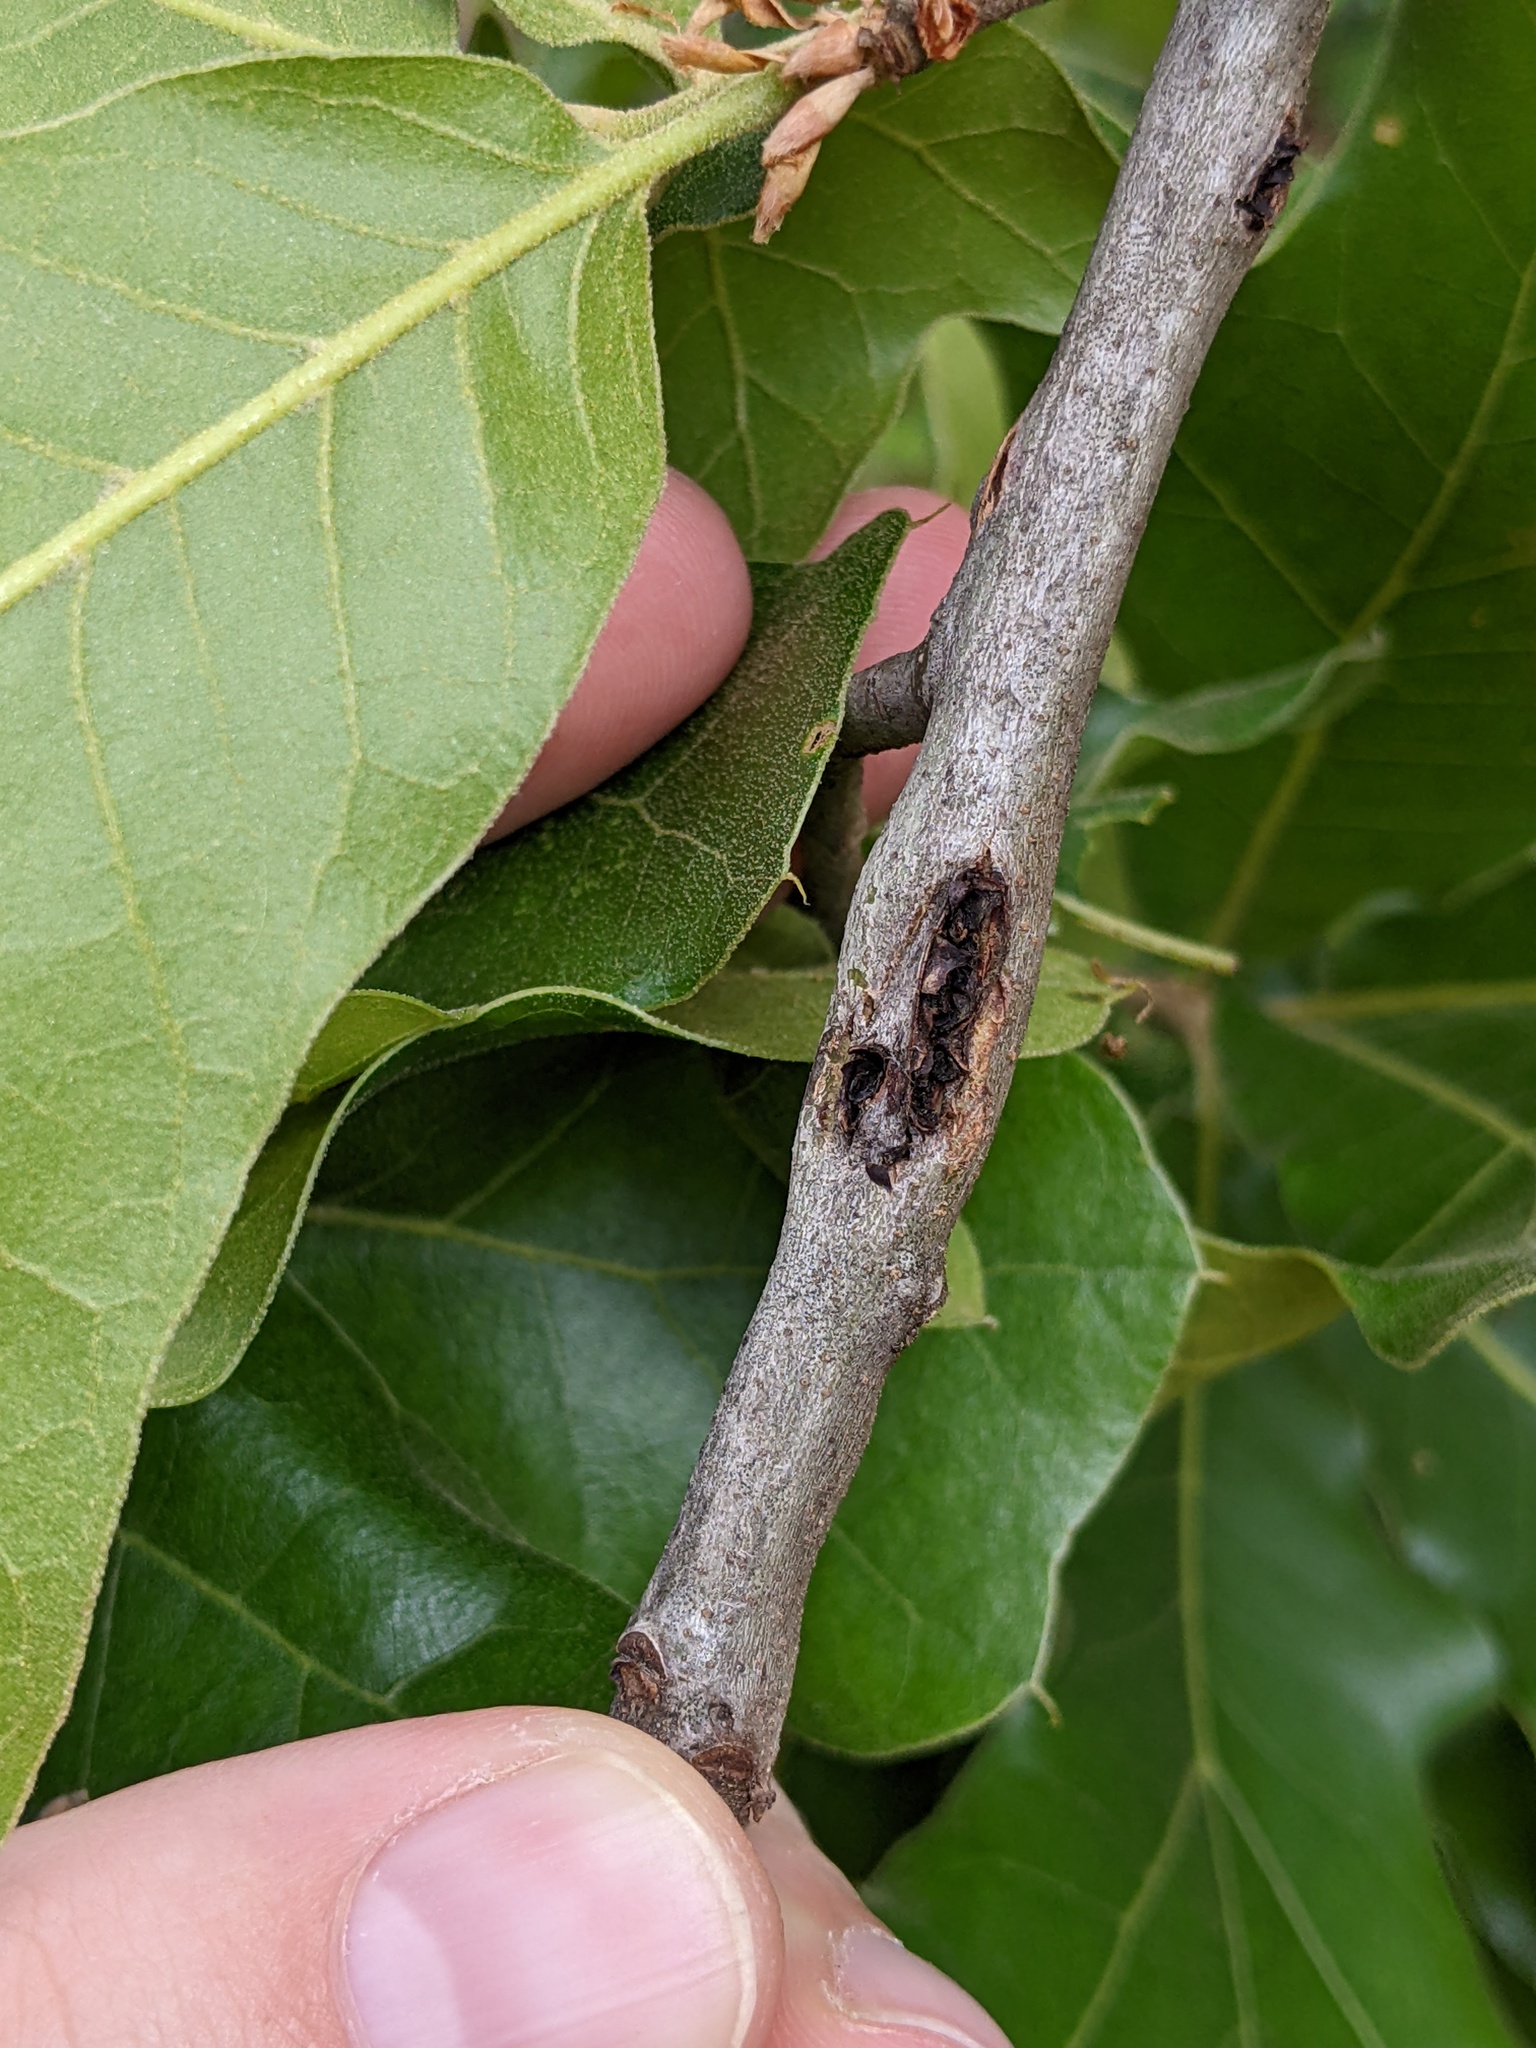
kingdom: Animalia
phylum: Arthropoda
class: Insecta
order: Hymenoptera
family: Cynipidae
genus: Kokkocynips
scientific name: Kokkocynips imbricariae
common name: Banded bullet gall wasp
